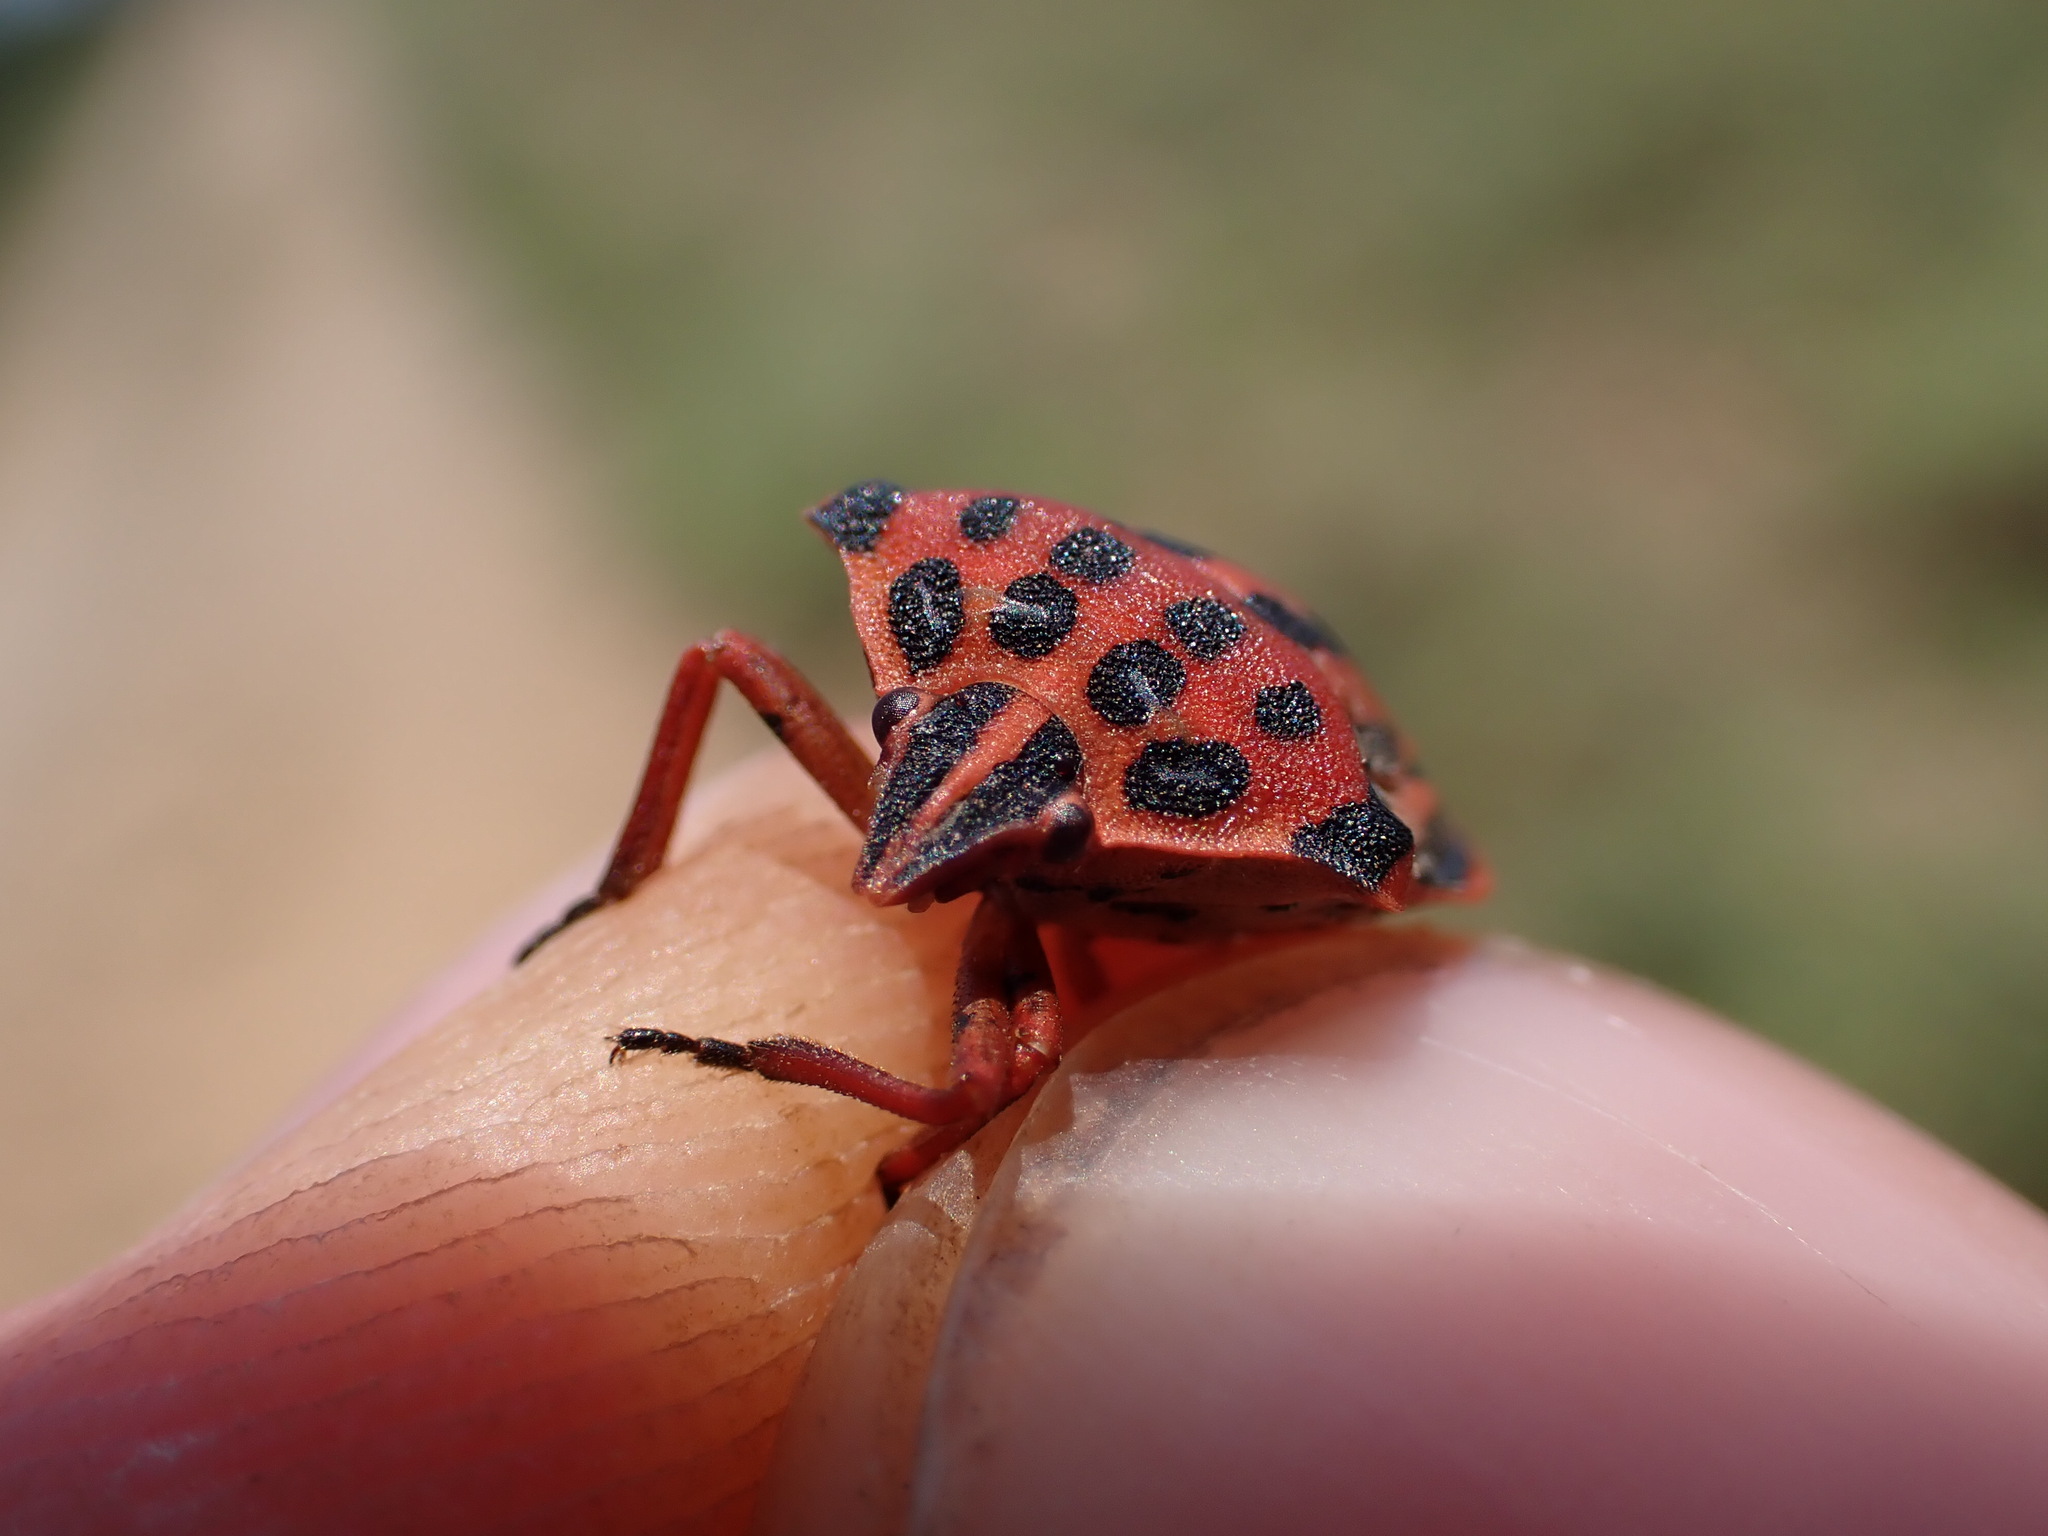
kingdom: Animalia
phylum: Arthropoda
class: Insecta
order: Hemiptera
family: Pentatomidae
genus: Graphosoma
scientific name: Graphosoma semipunctatum
